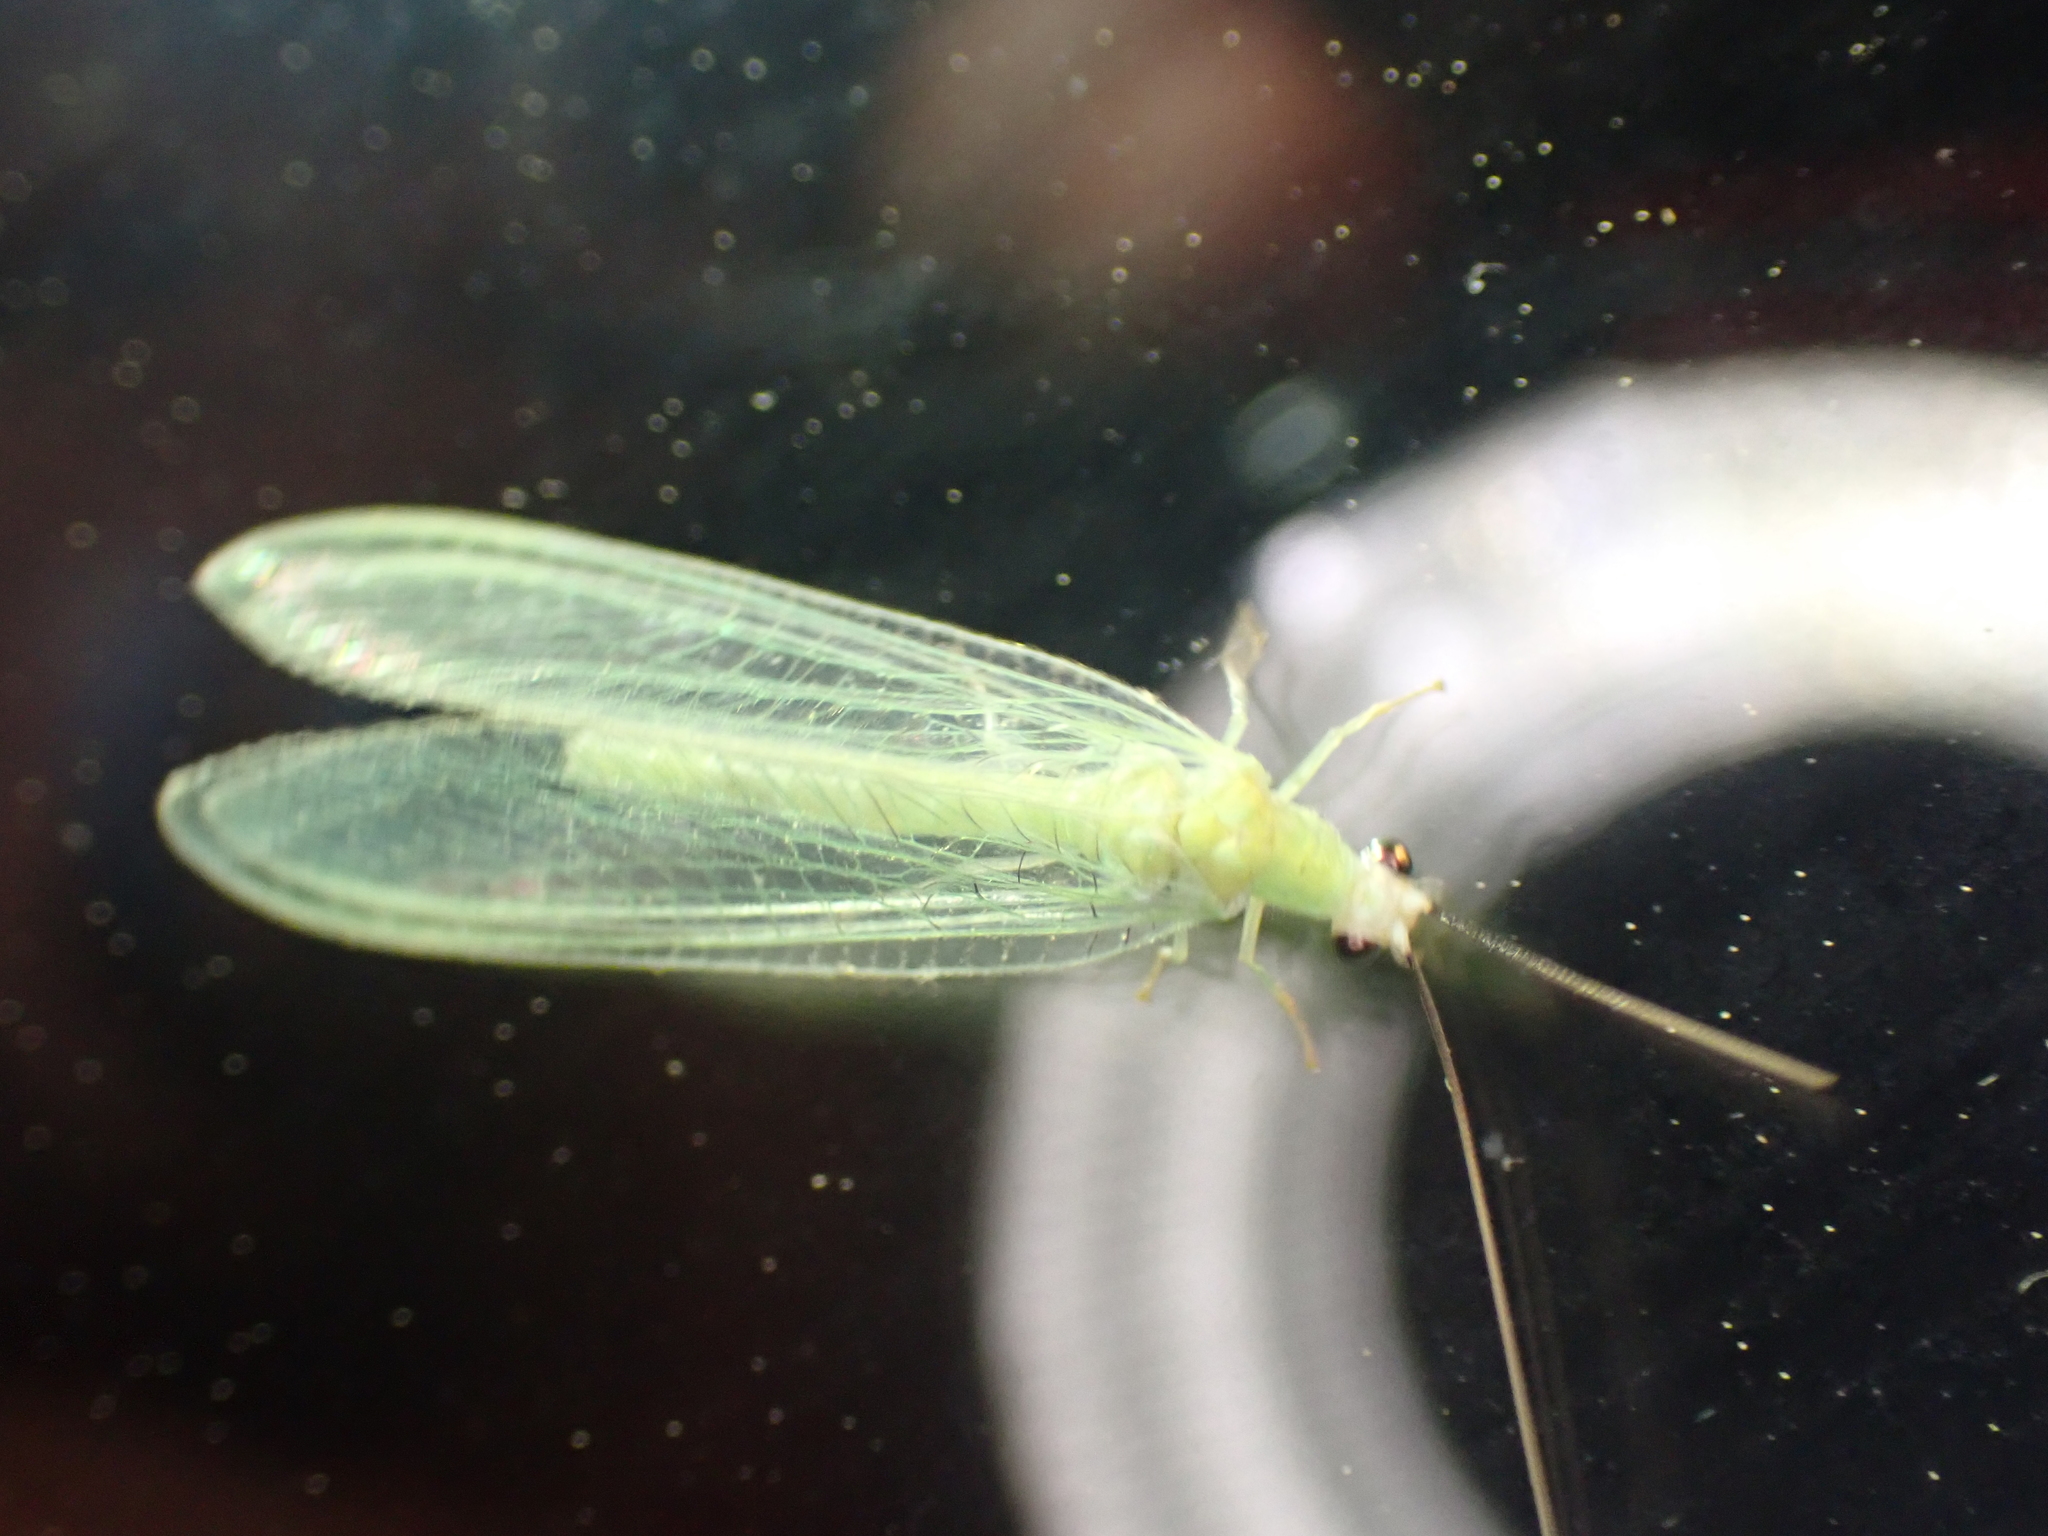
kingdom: Animalia
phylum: Arthropoda
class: Insecta
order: Neuroptera
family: Chrysopidae
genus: Chrysopa
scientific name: Chrysopa nigricornis
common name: Black-horned green lacewing
